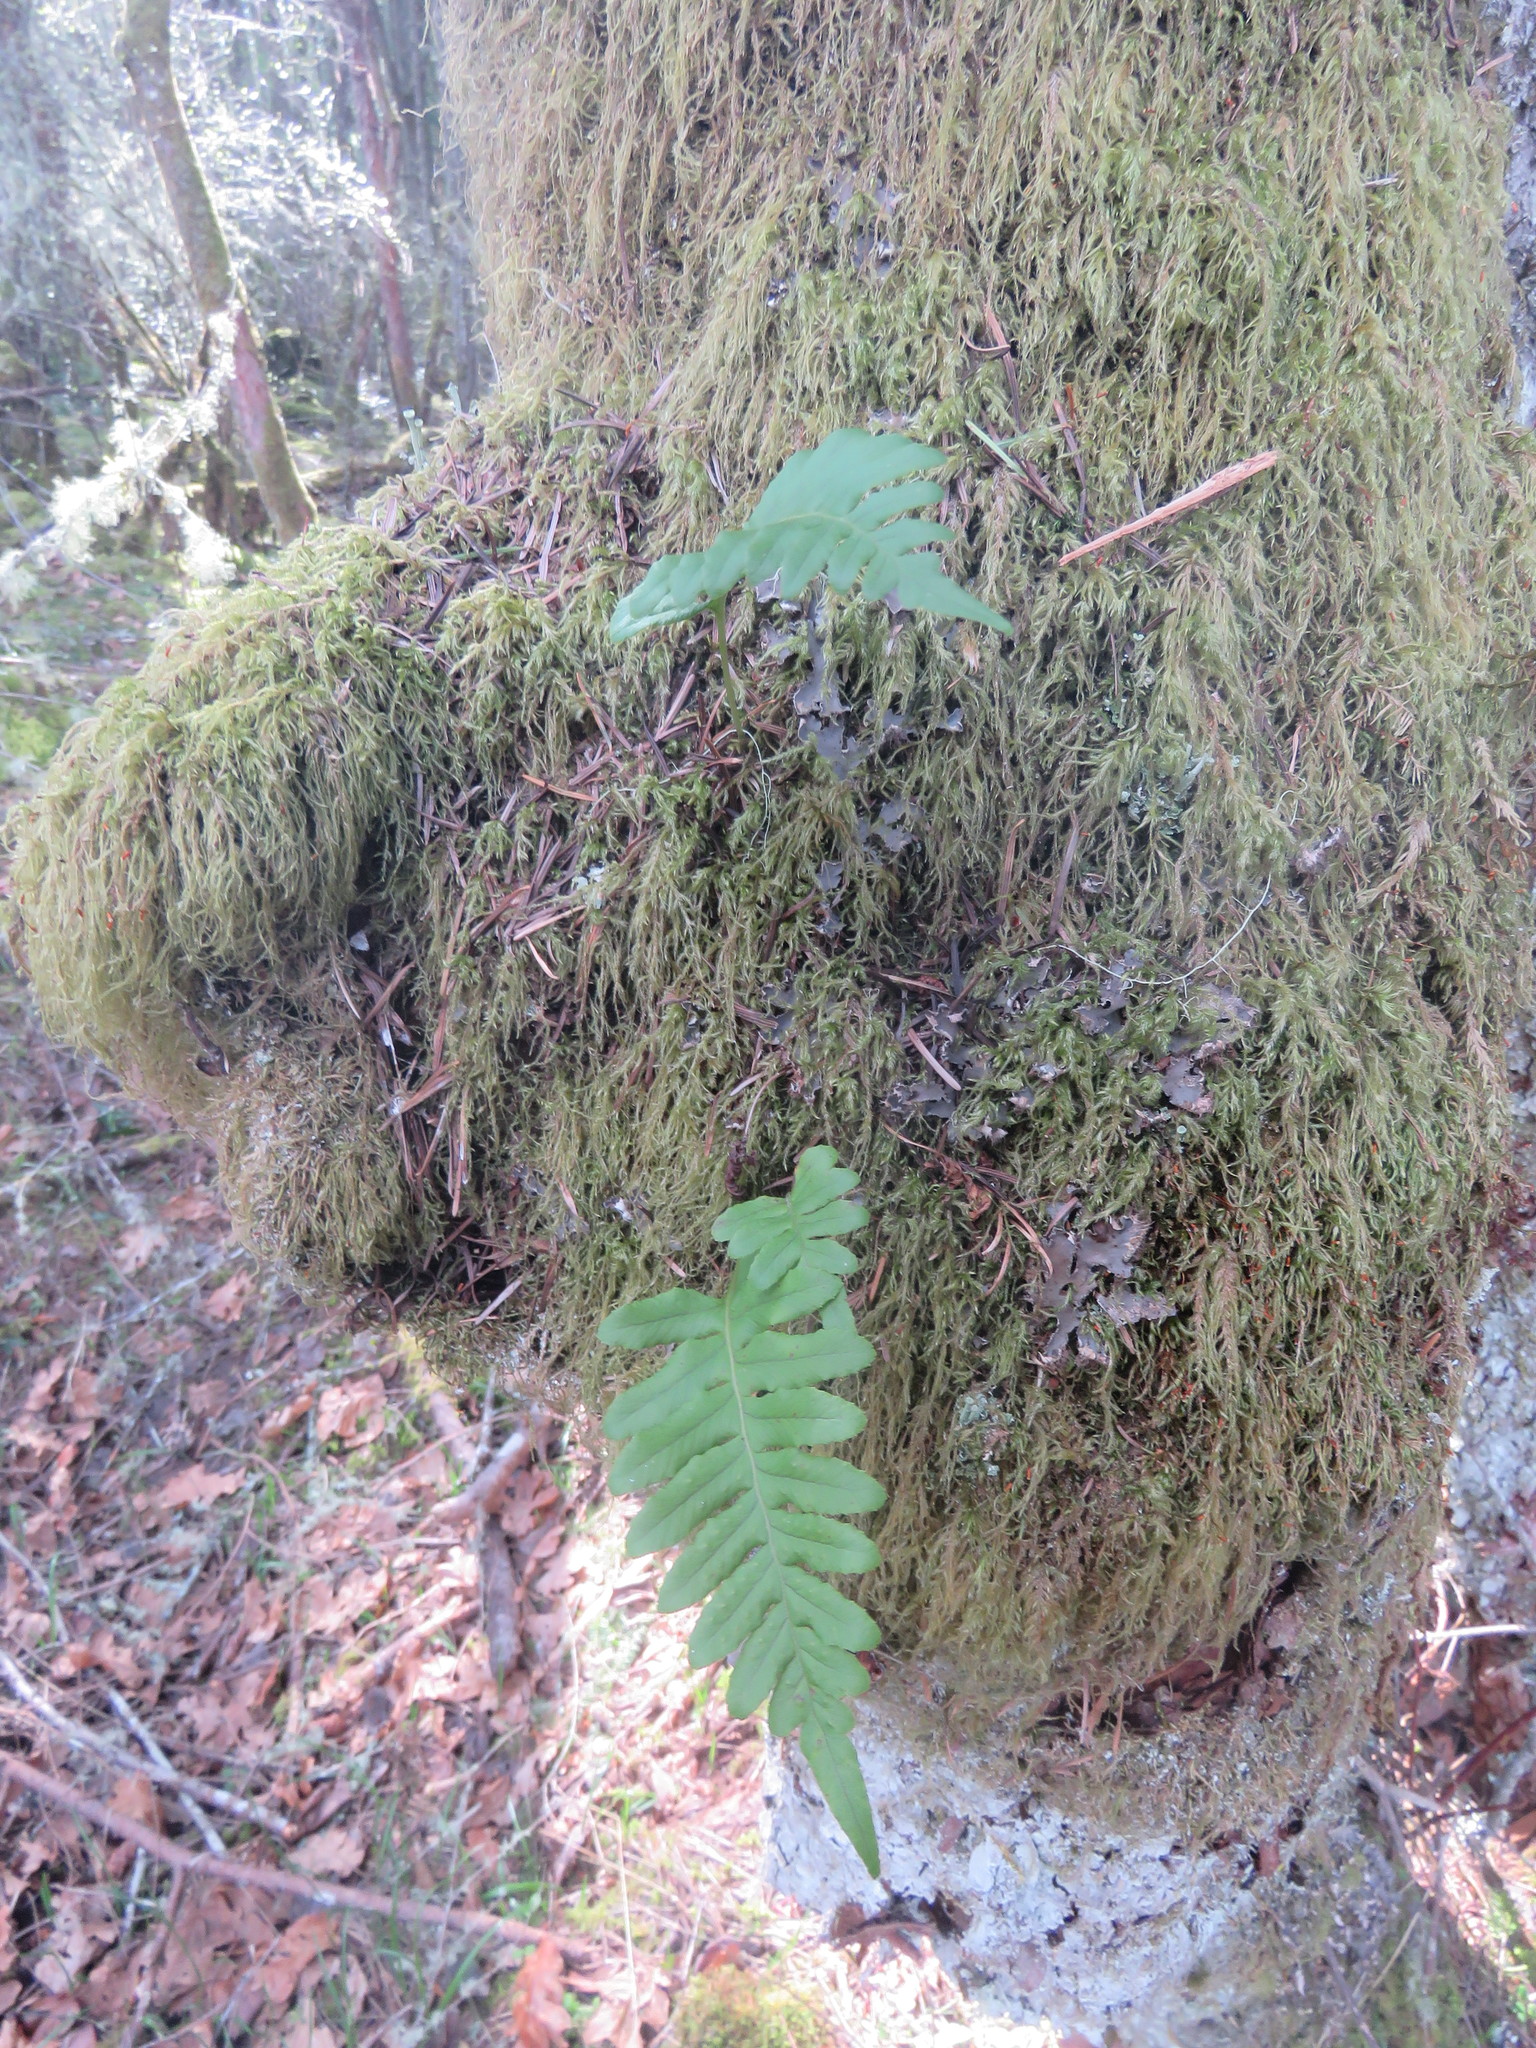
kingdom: Plantae
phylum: Tracheophyta
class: Polypodiopsida
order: Polypodiales
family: Polypodiaceae
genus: Polypodium
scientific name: Polypodium glycyrrhiza
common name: Licorice fern
